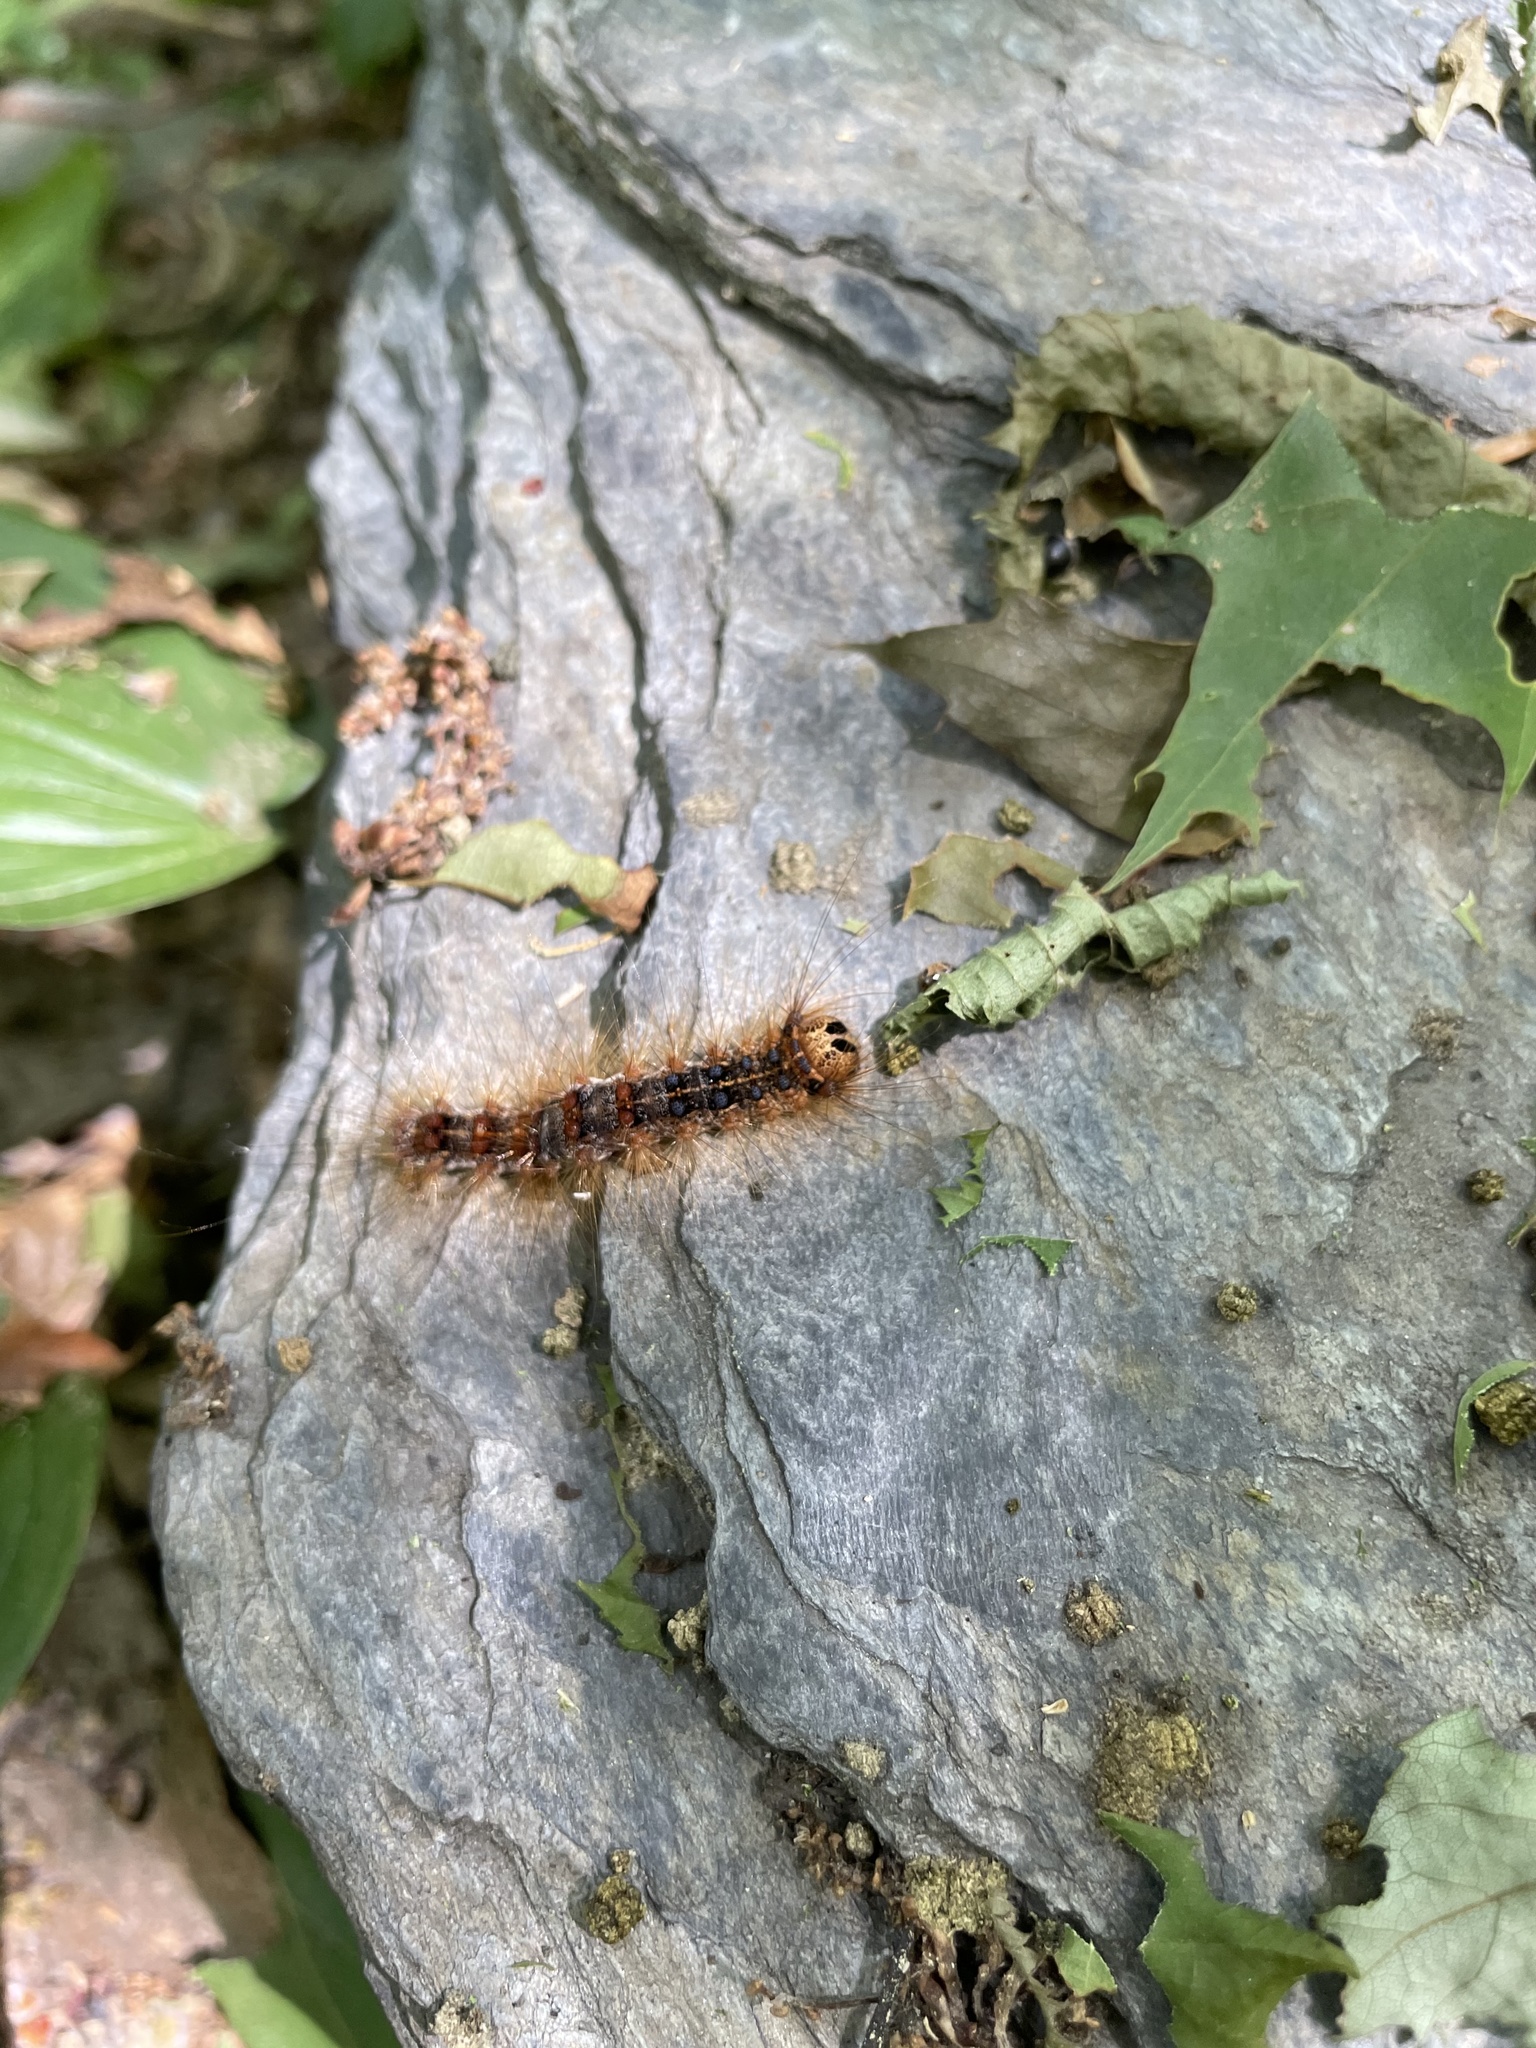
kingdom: Animalia
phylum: Arthropoda
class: Insecta
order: Lepidoptera
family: Erebidae
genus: Lymantria
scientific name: Lymantria dispar
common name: Gypsy moth
